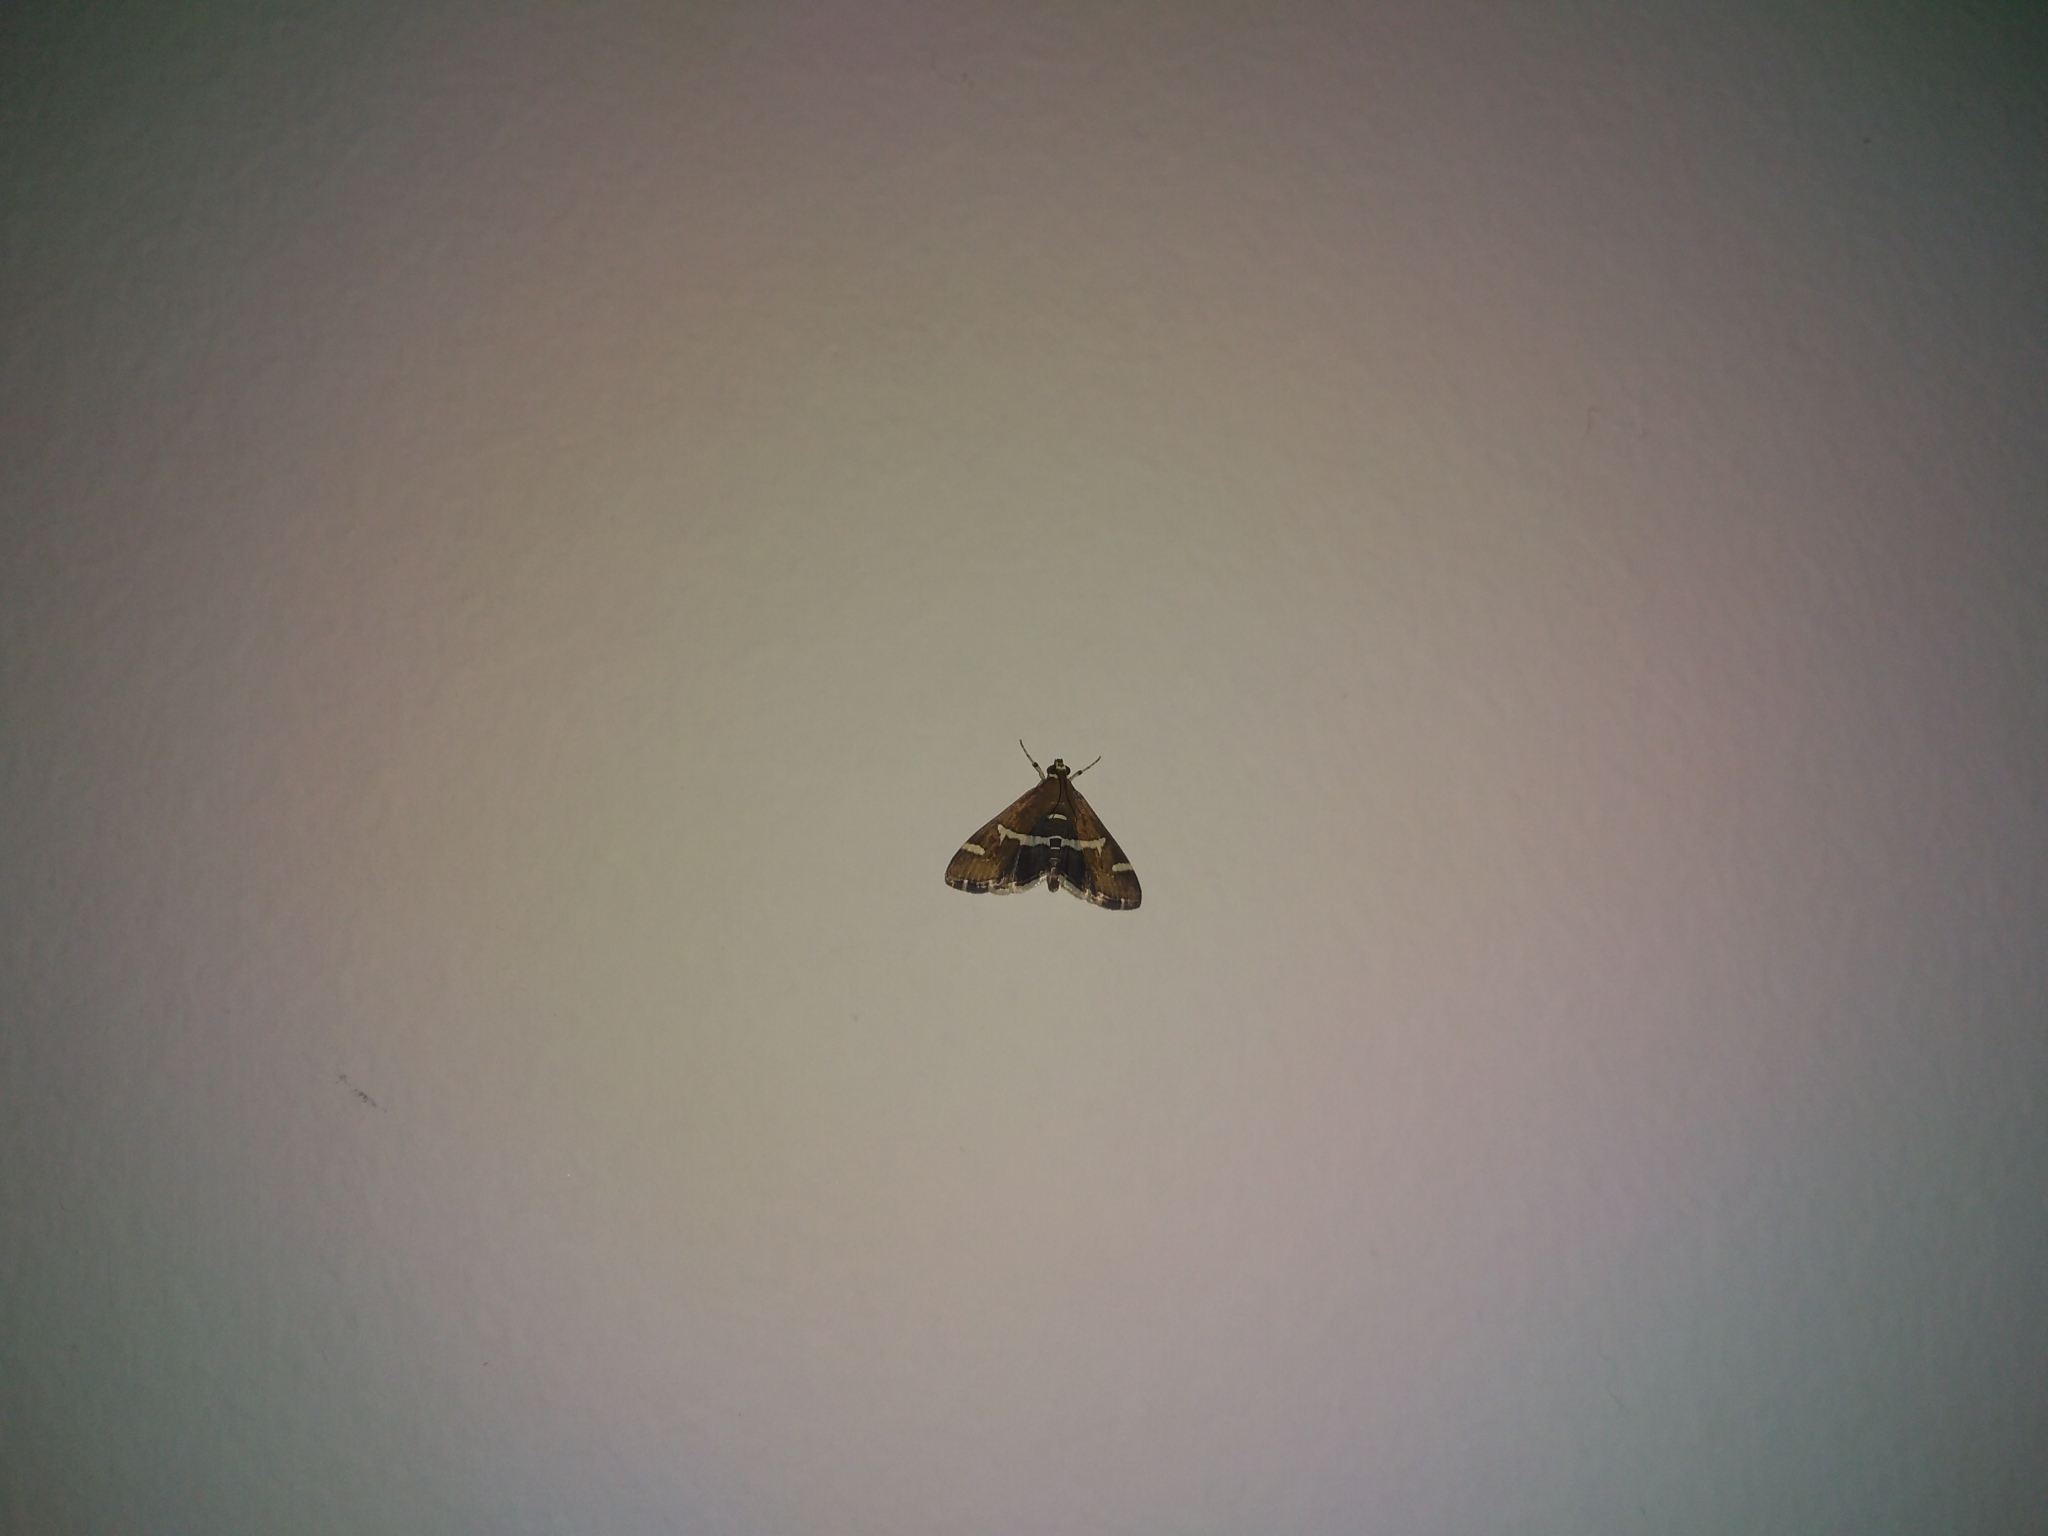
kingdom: Animalia
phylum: Arthropoda
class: Insecta
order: Lepidoptera
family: Crambidae
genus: Spoladea
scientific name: Spoladea recurvalis
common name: Beet webworm moth
